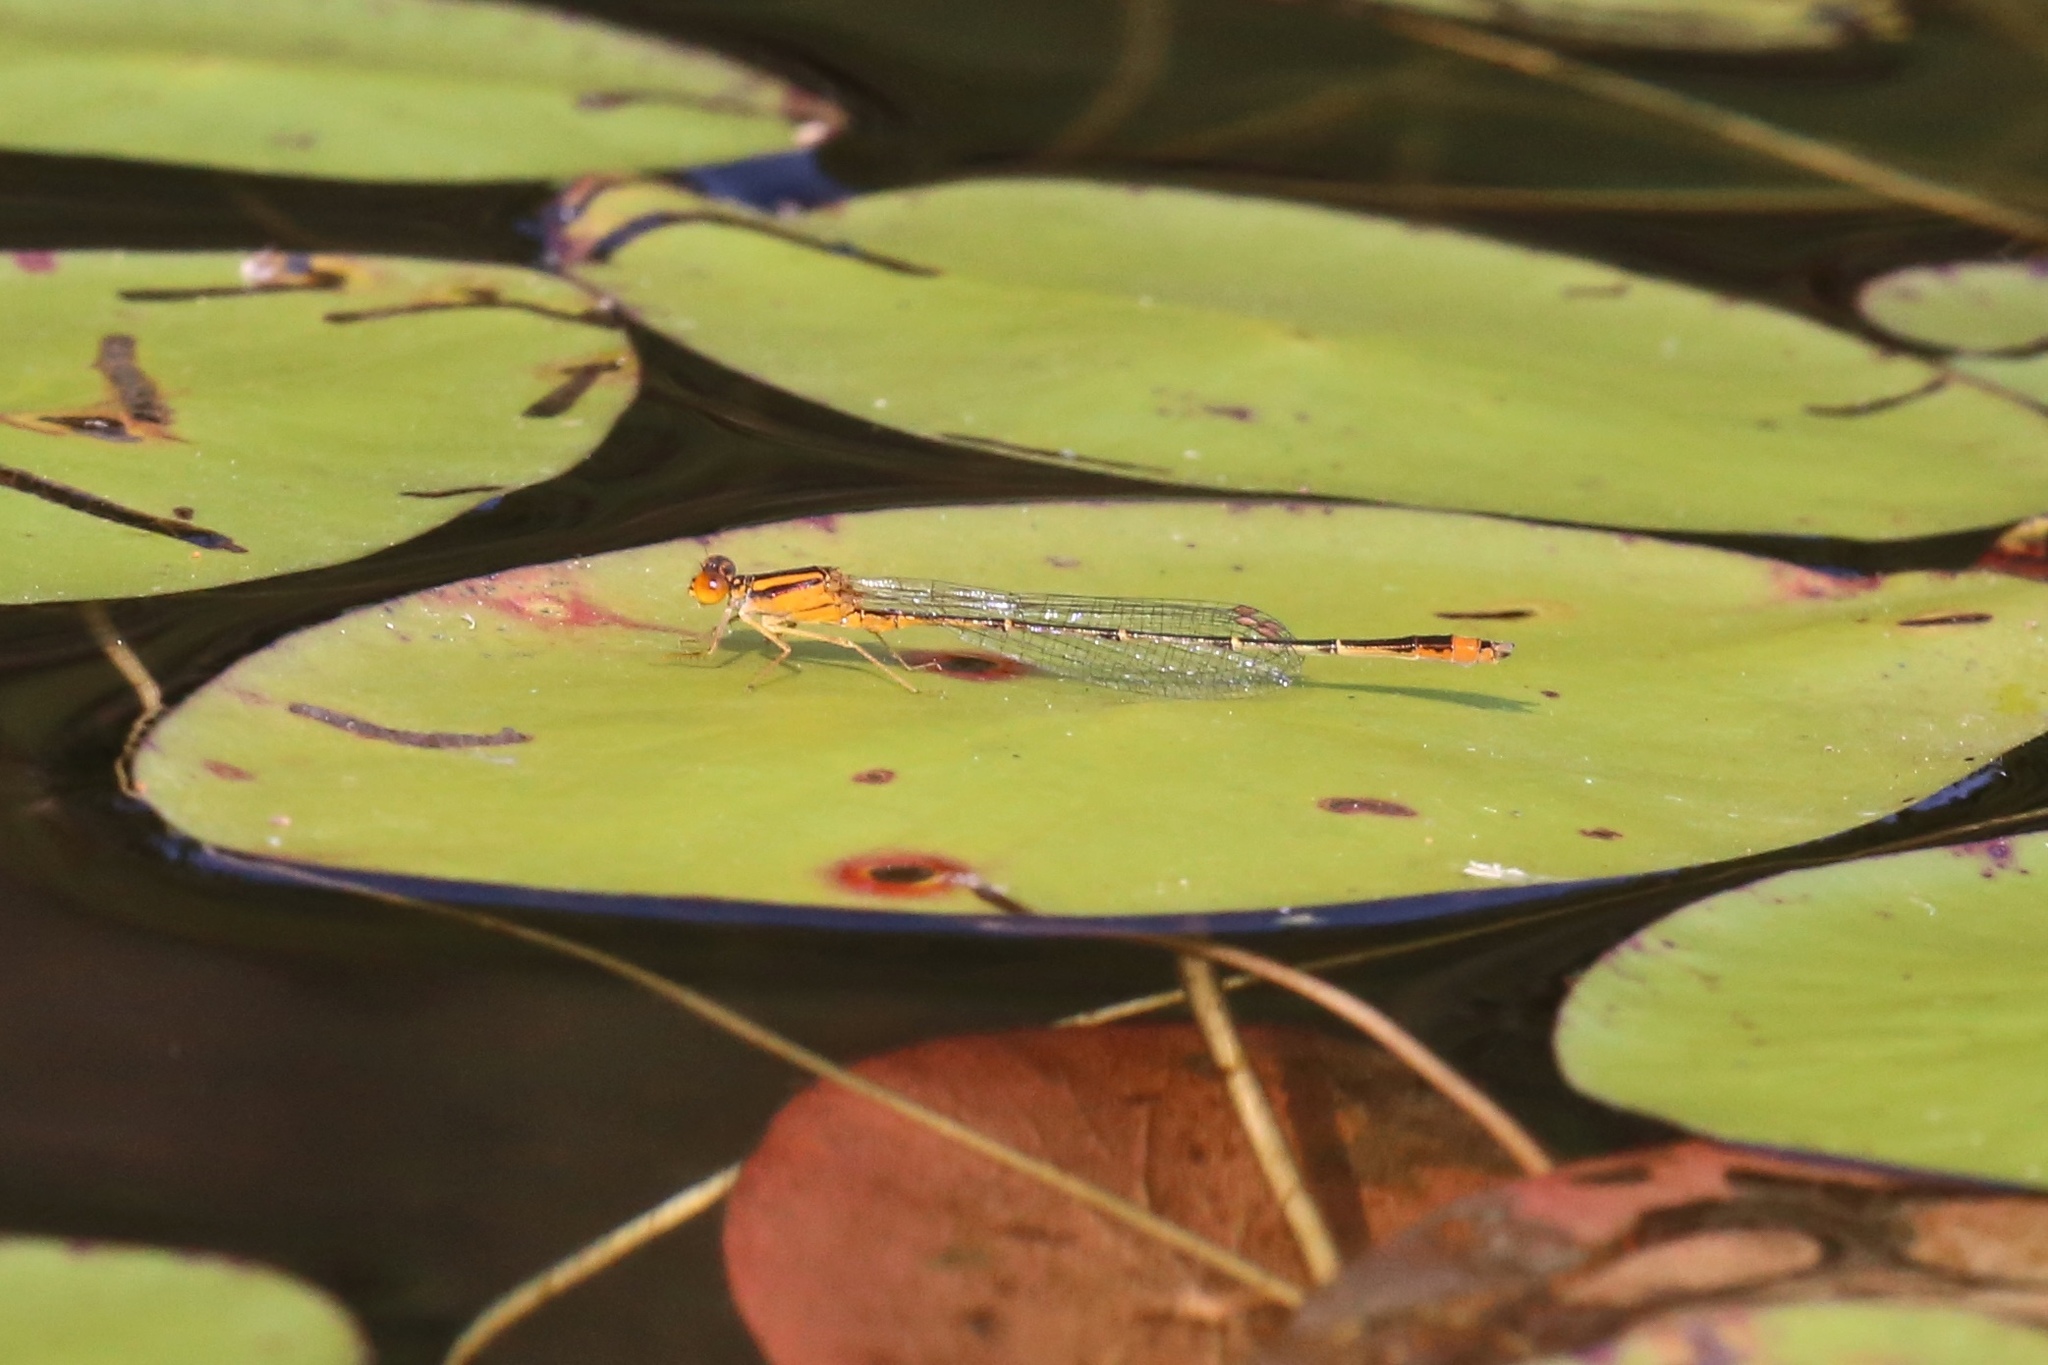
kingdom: Animalia
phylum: Arthropoda
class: Insecta
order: Odonata
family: Coenagrionidae
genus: Enallagma
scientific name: Enallagma signatum
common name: Orange bluet
